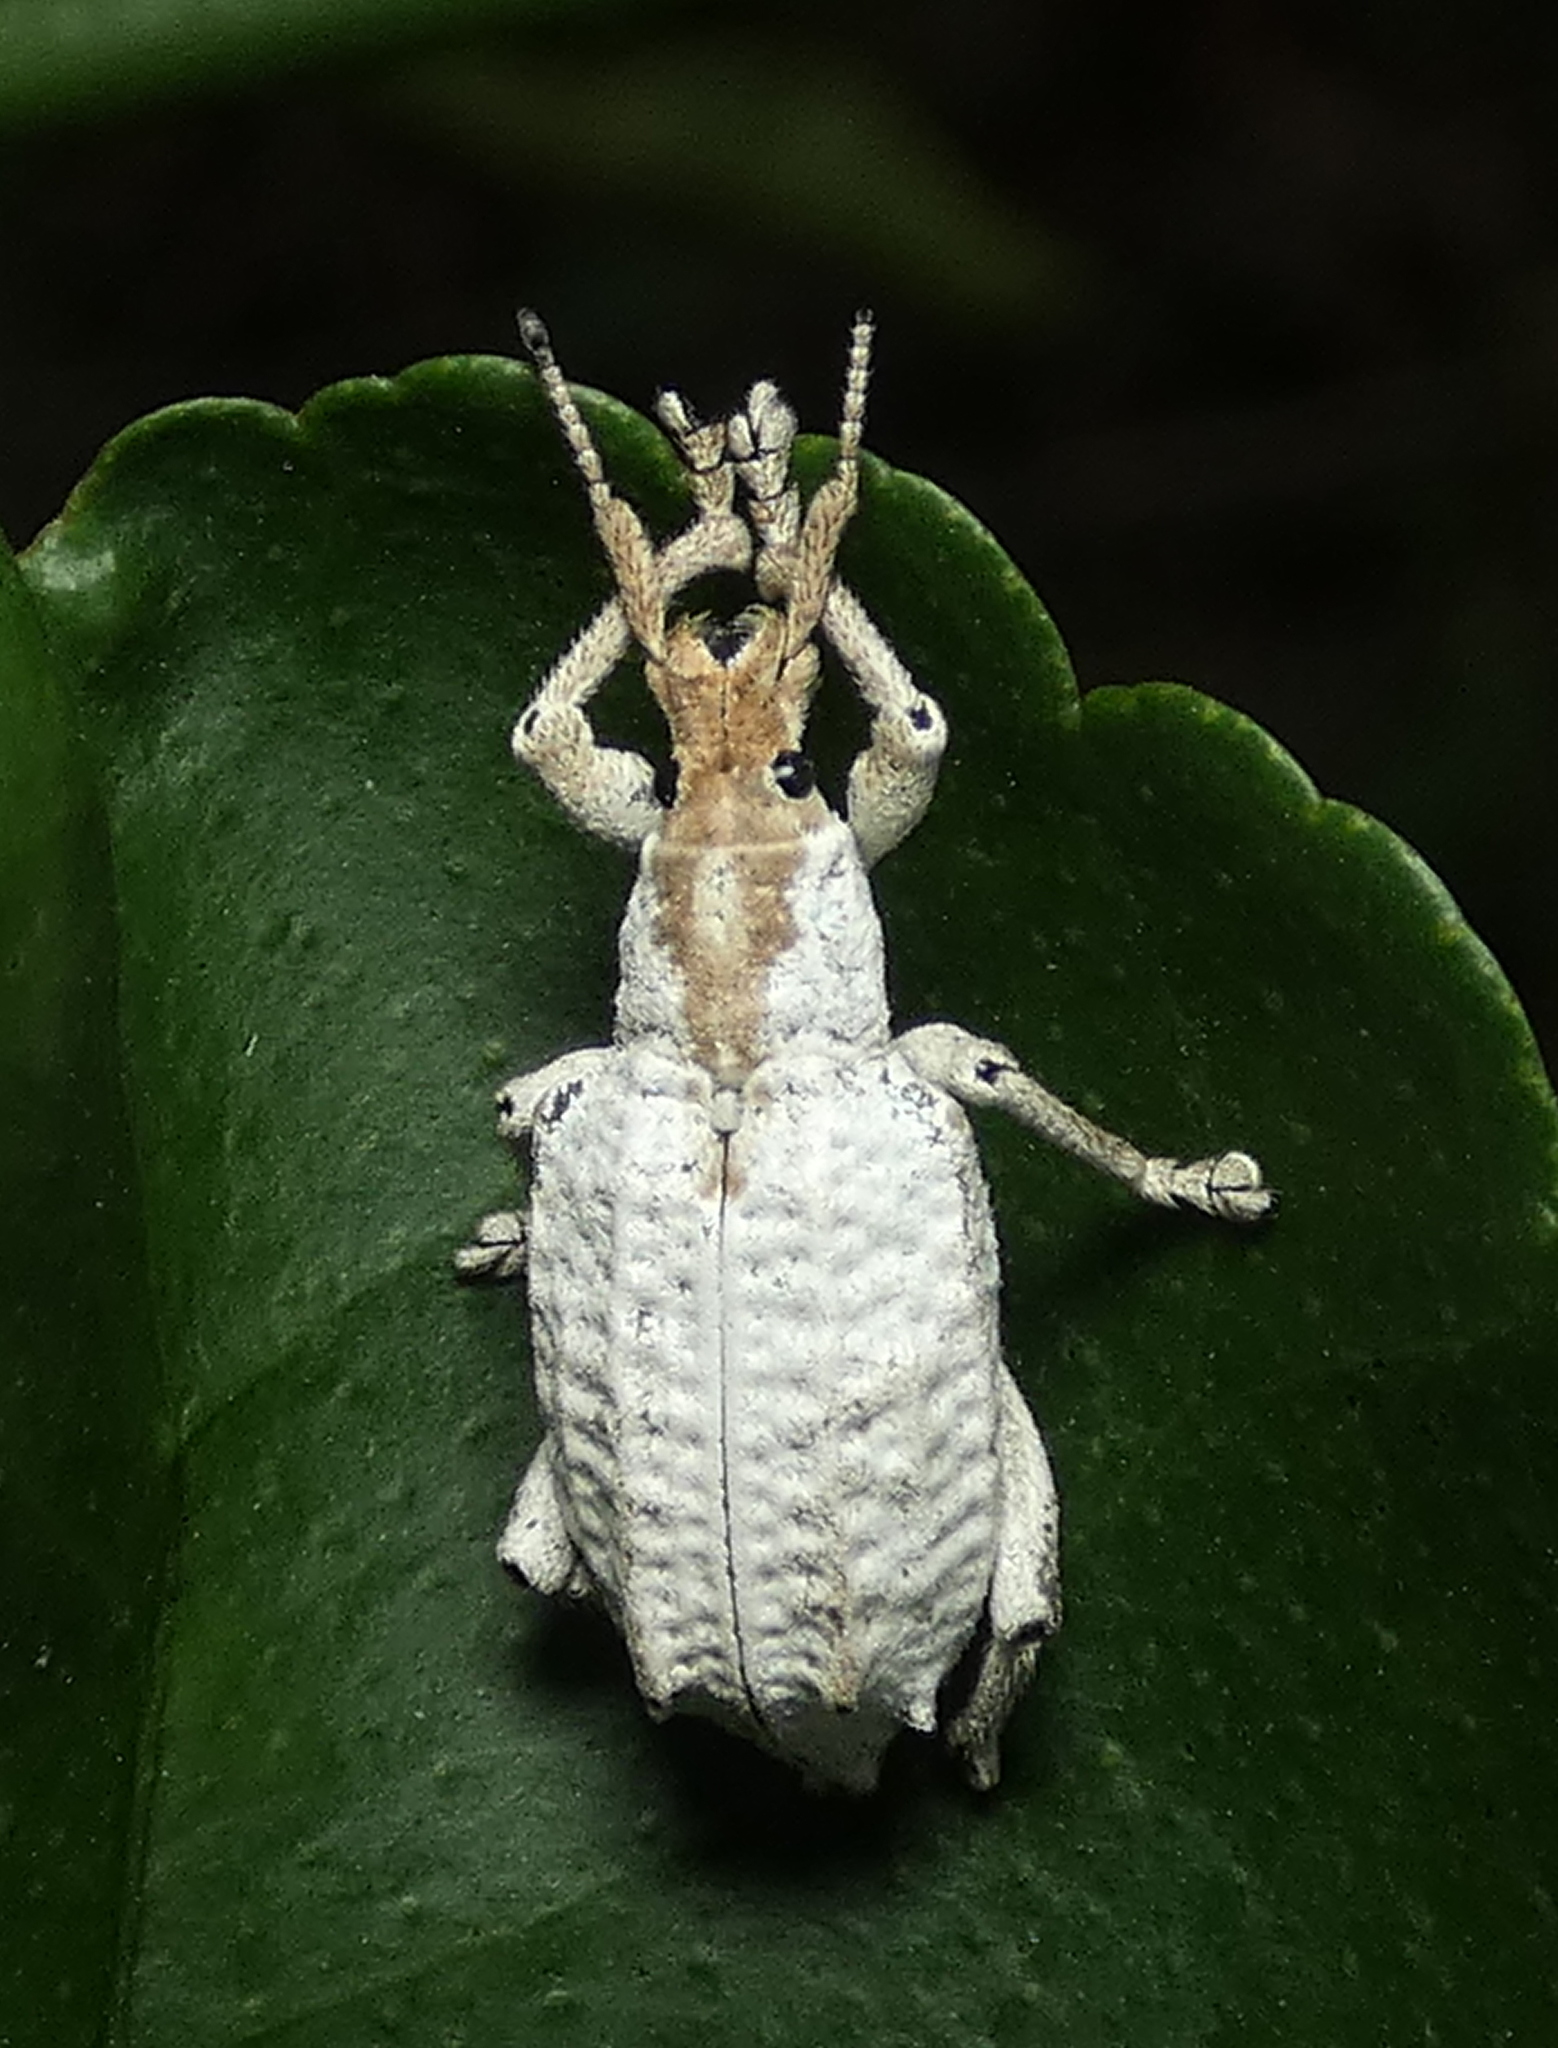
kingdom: Animalia
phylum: Arthropoda
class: Insecta
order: Coleoptera
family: Curculionidae
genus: Compsus
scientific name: Compsus niveus
